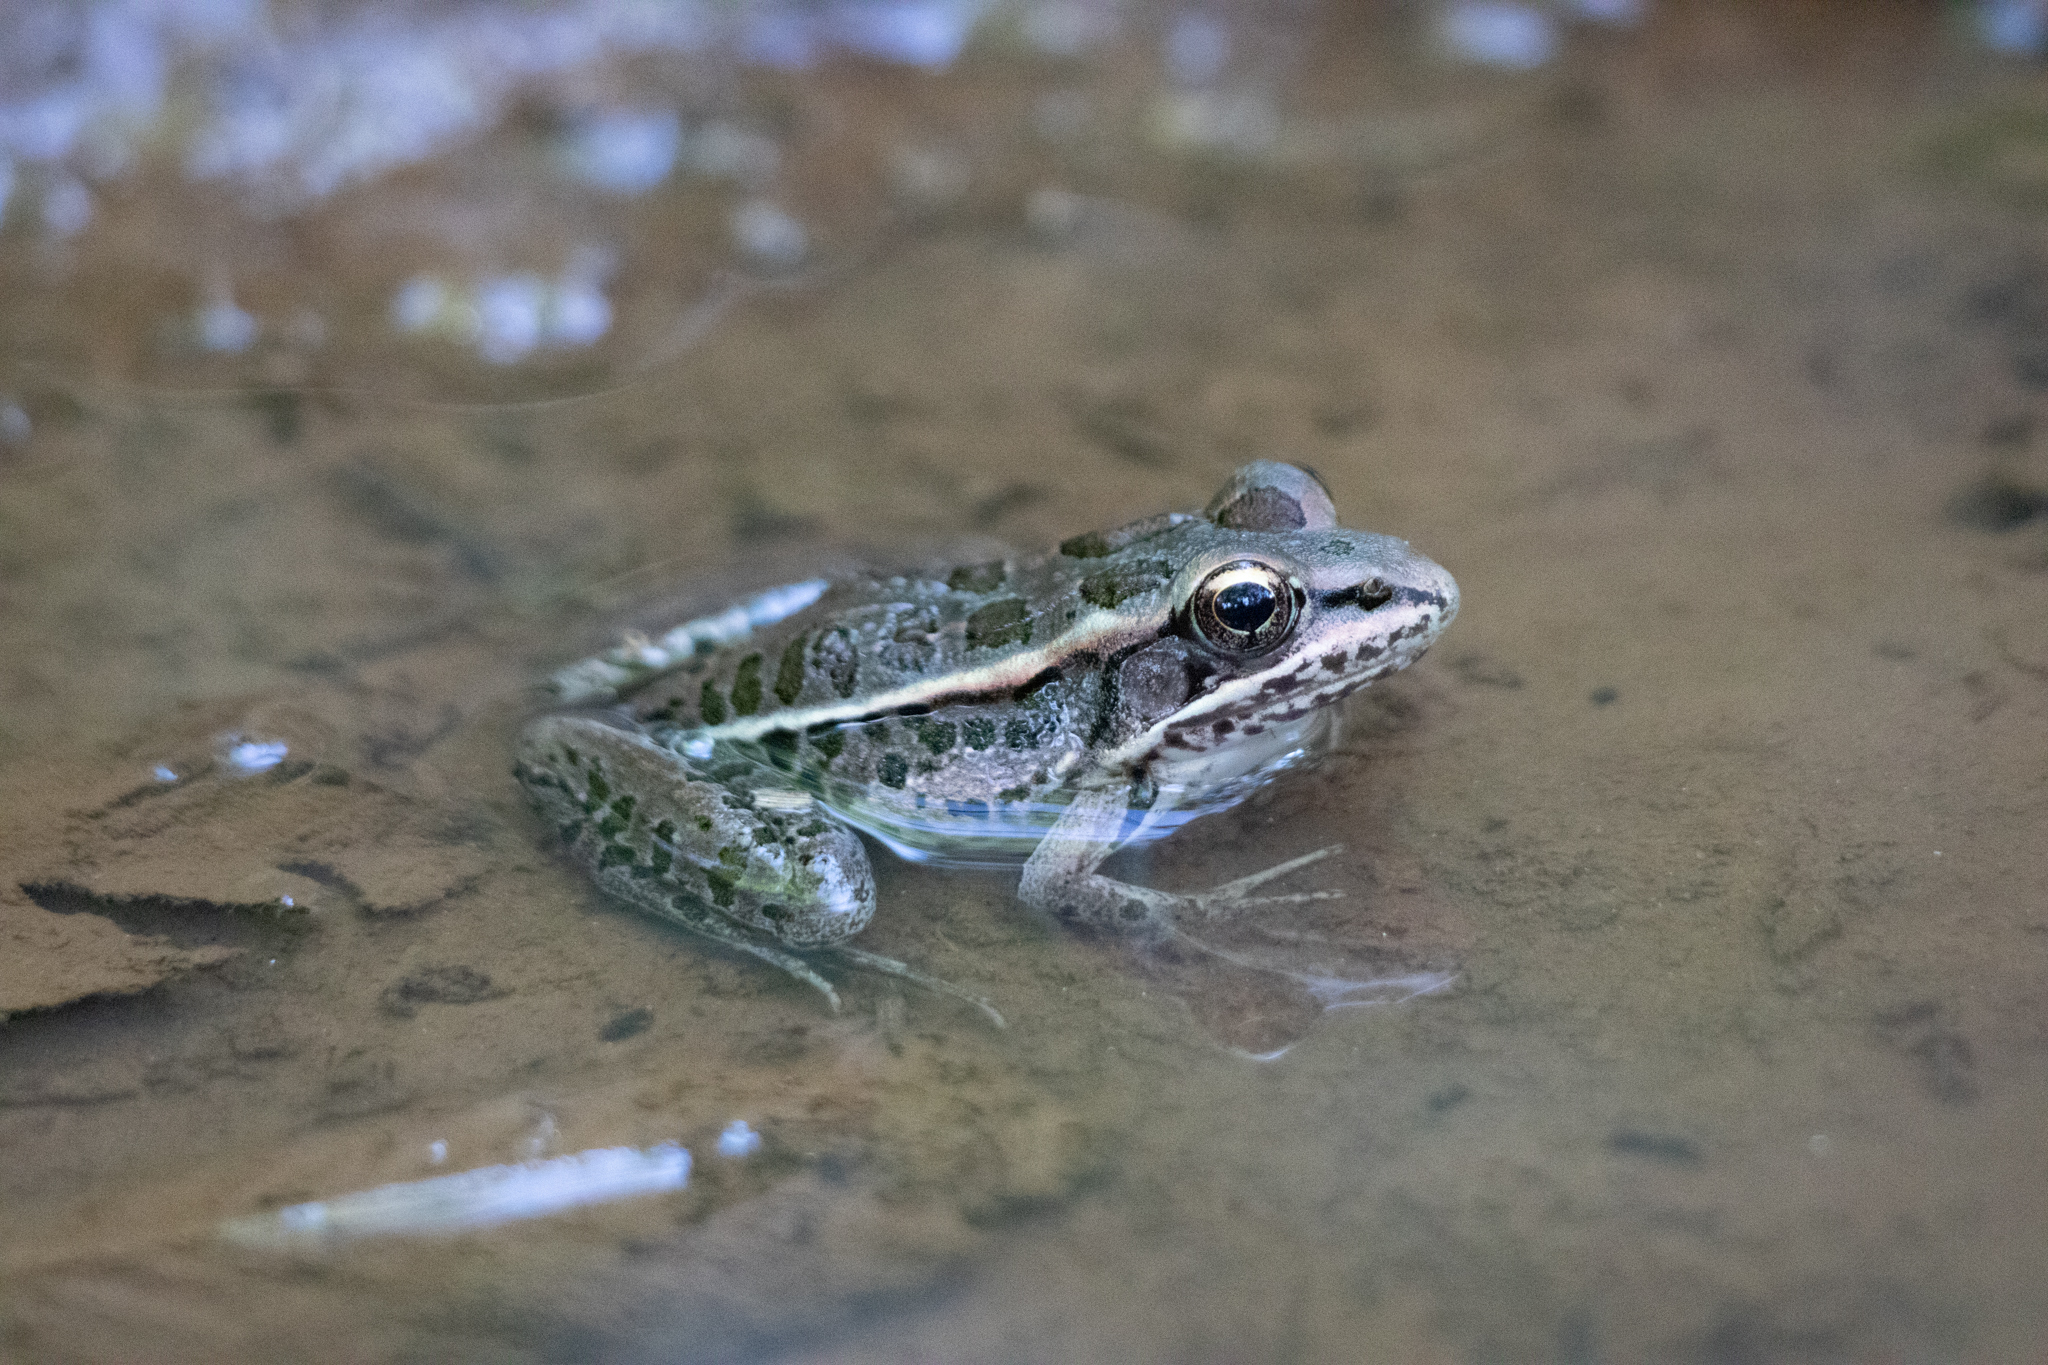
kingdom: Animalia
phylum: Chordata
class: Amphibia
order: Anura
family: Ranidae
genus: Lithobates
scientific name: Lithobates palustris
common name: Pickerel frog
